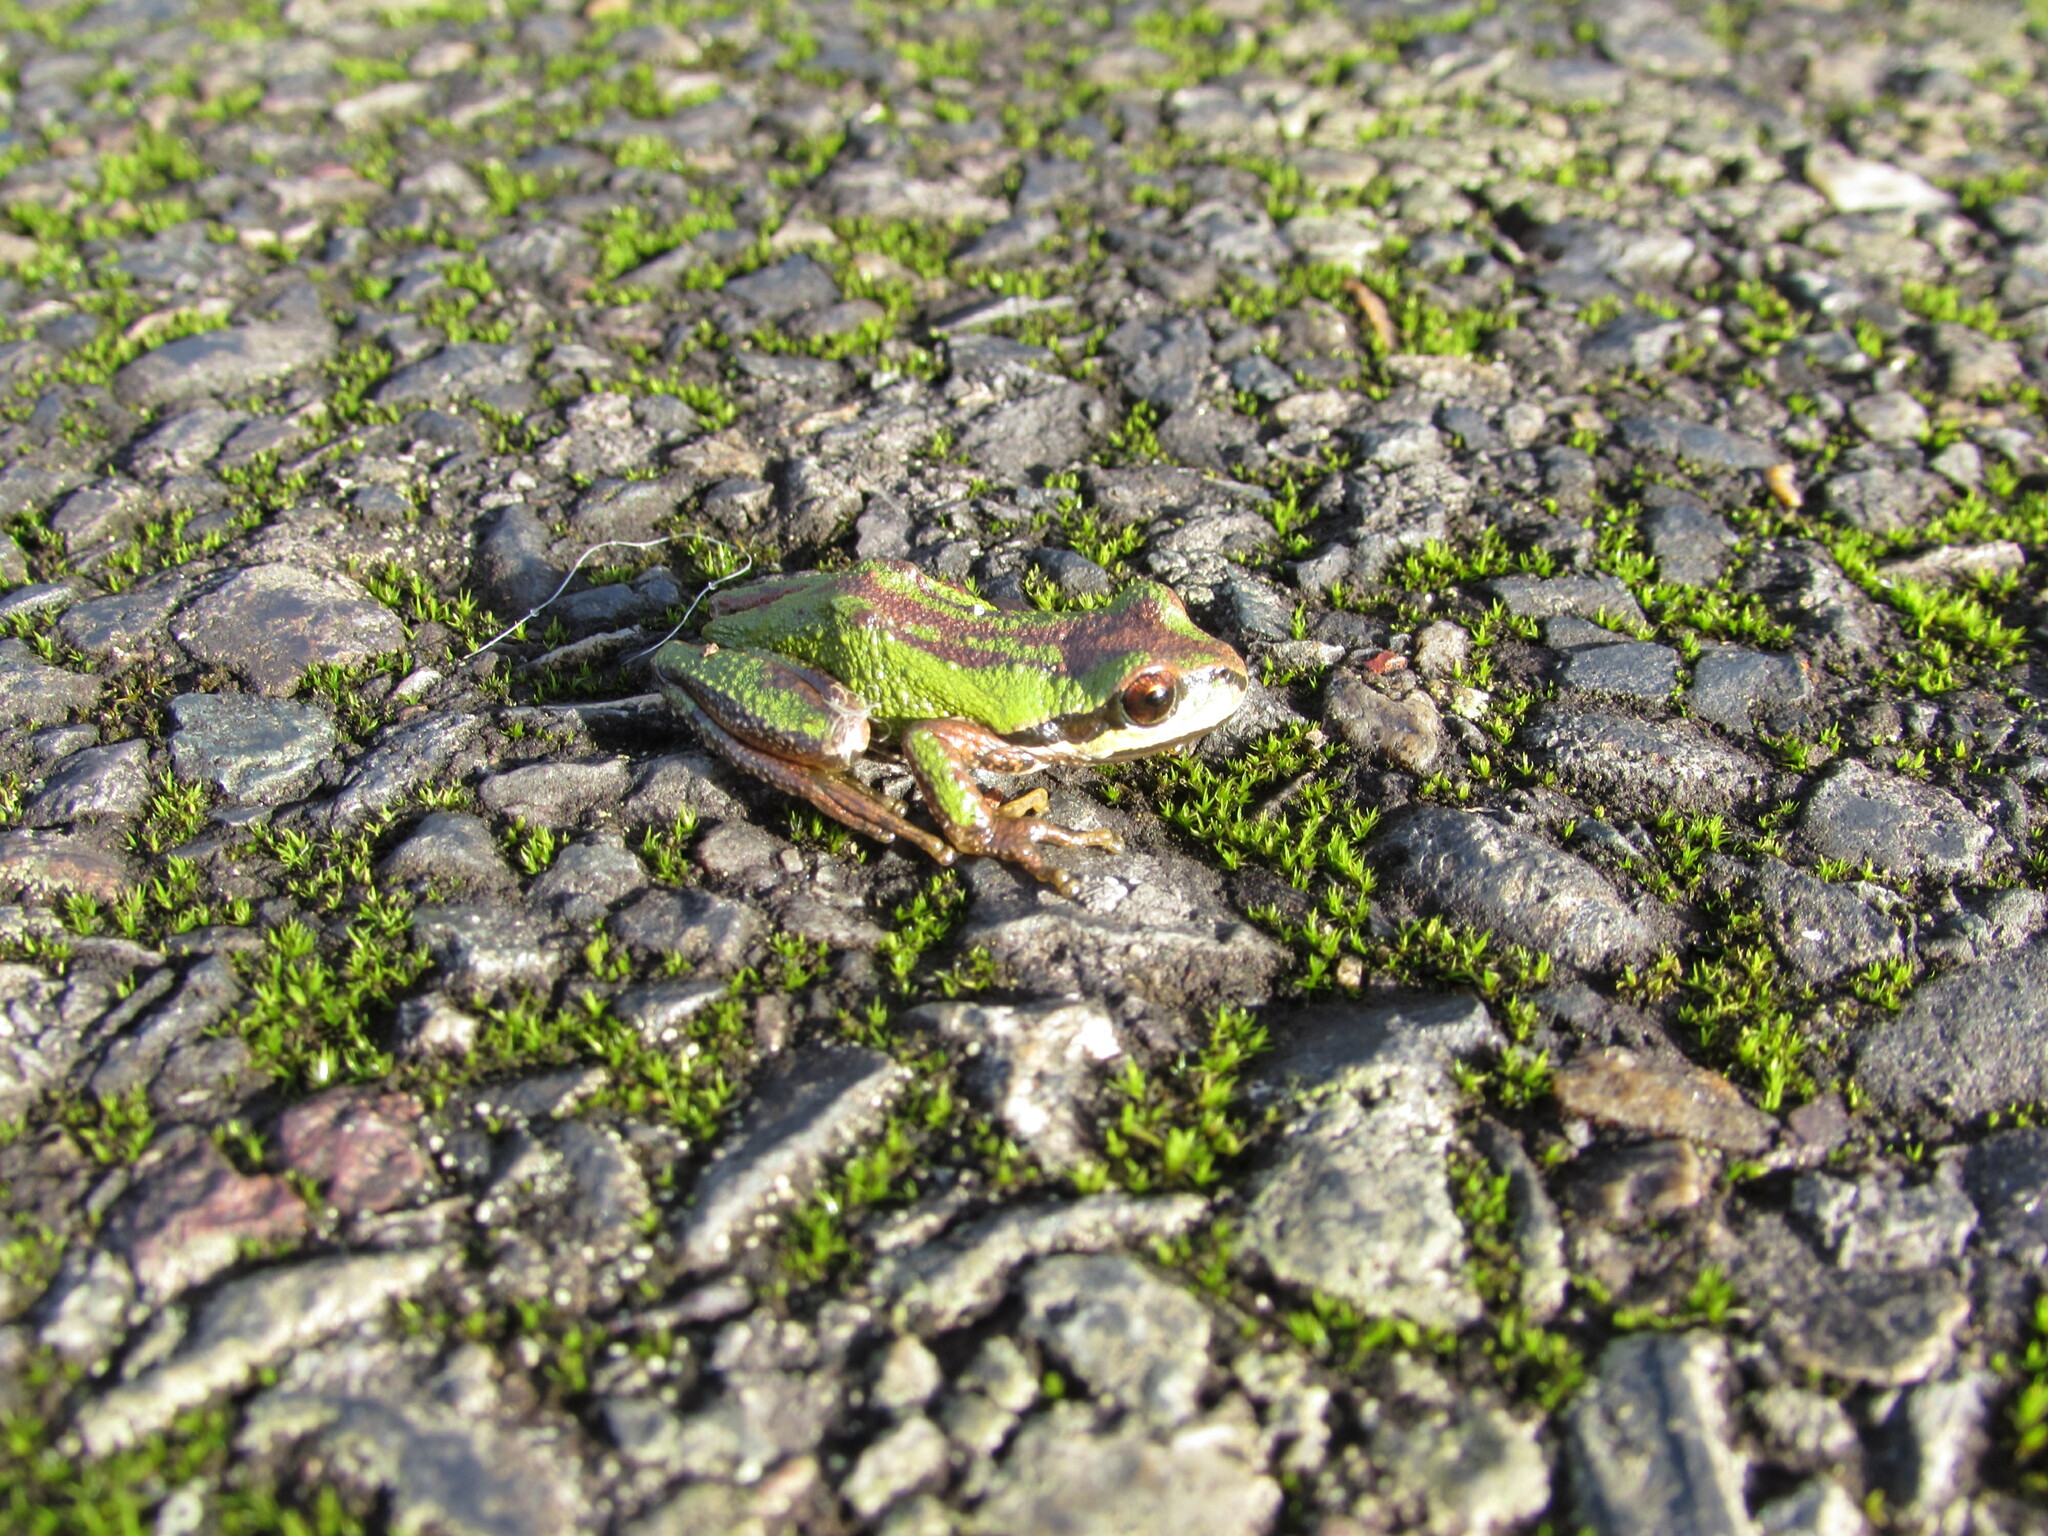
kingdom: Animalia
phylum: Chordata
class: Amphibia
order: Anura
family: Hylidae
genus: Pseudacris
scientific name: Pseudacris regilla
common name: Pacific chorus frog
